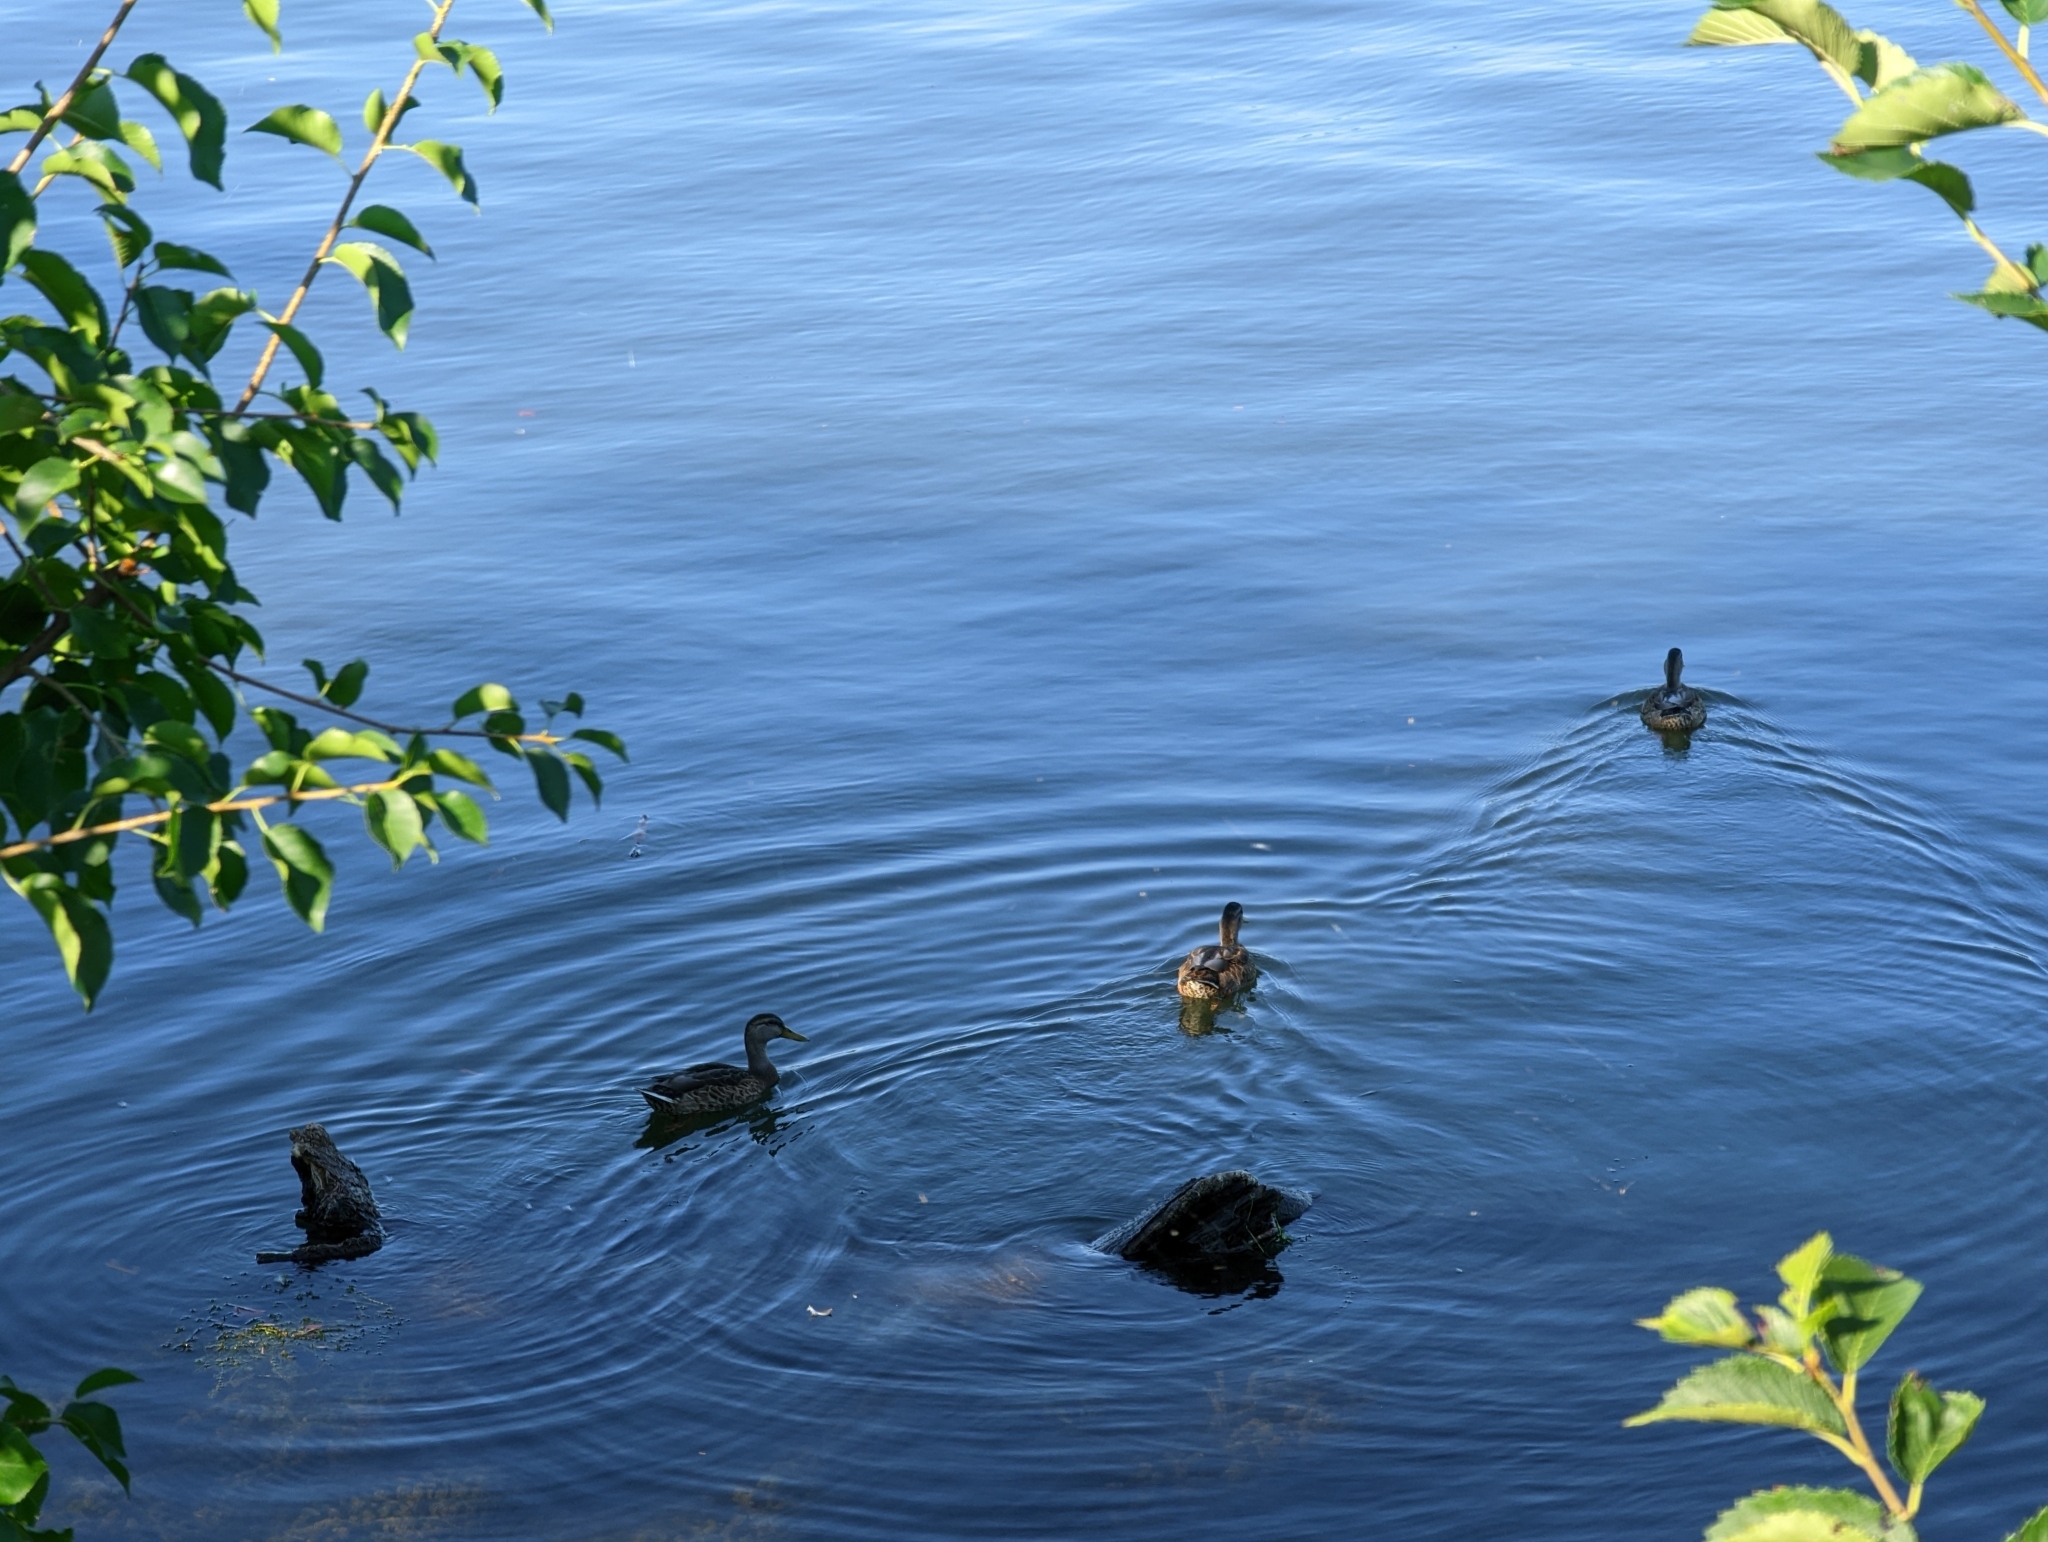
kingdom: Animalia
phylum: Chordata
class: Aves
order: Anseriformes
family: Anatidae
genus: Anas
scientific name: Anas platyrhynchos
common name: Mallard
